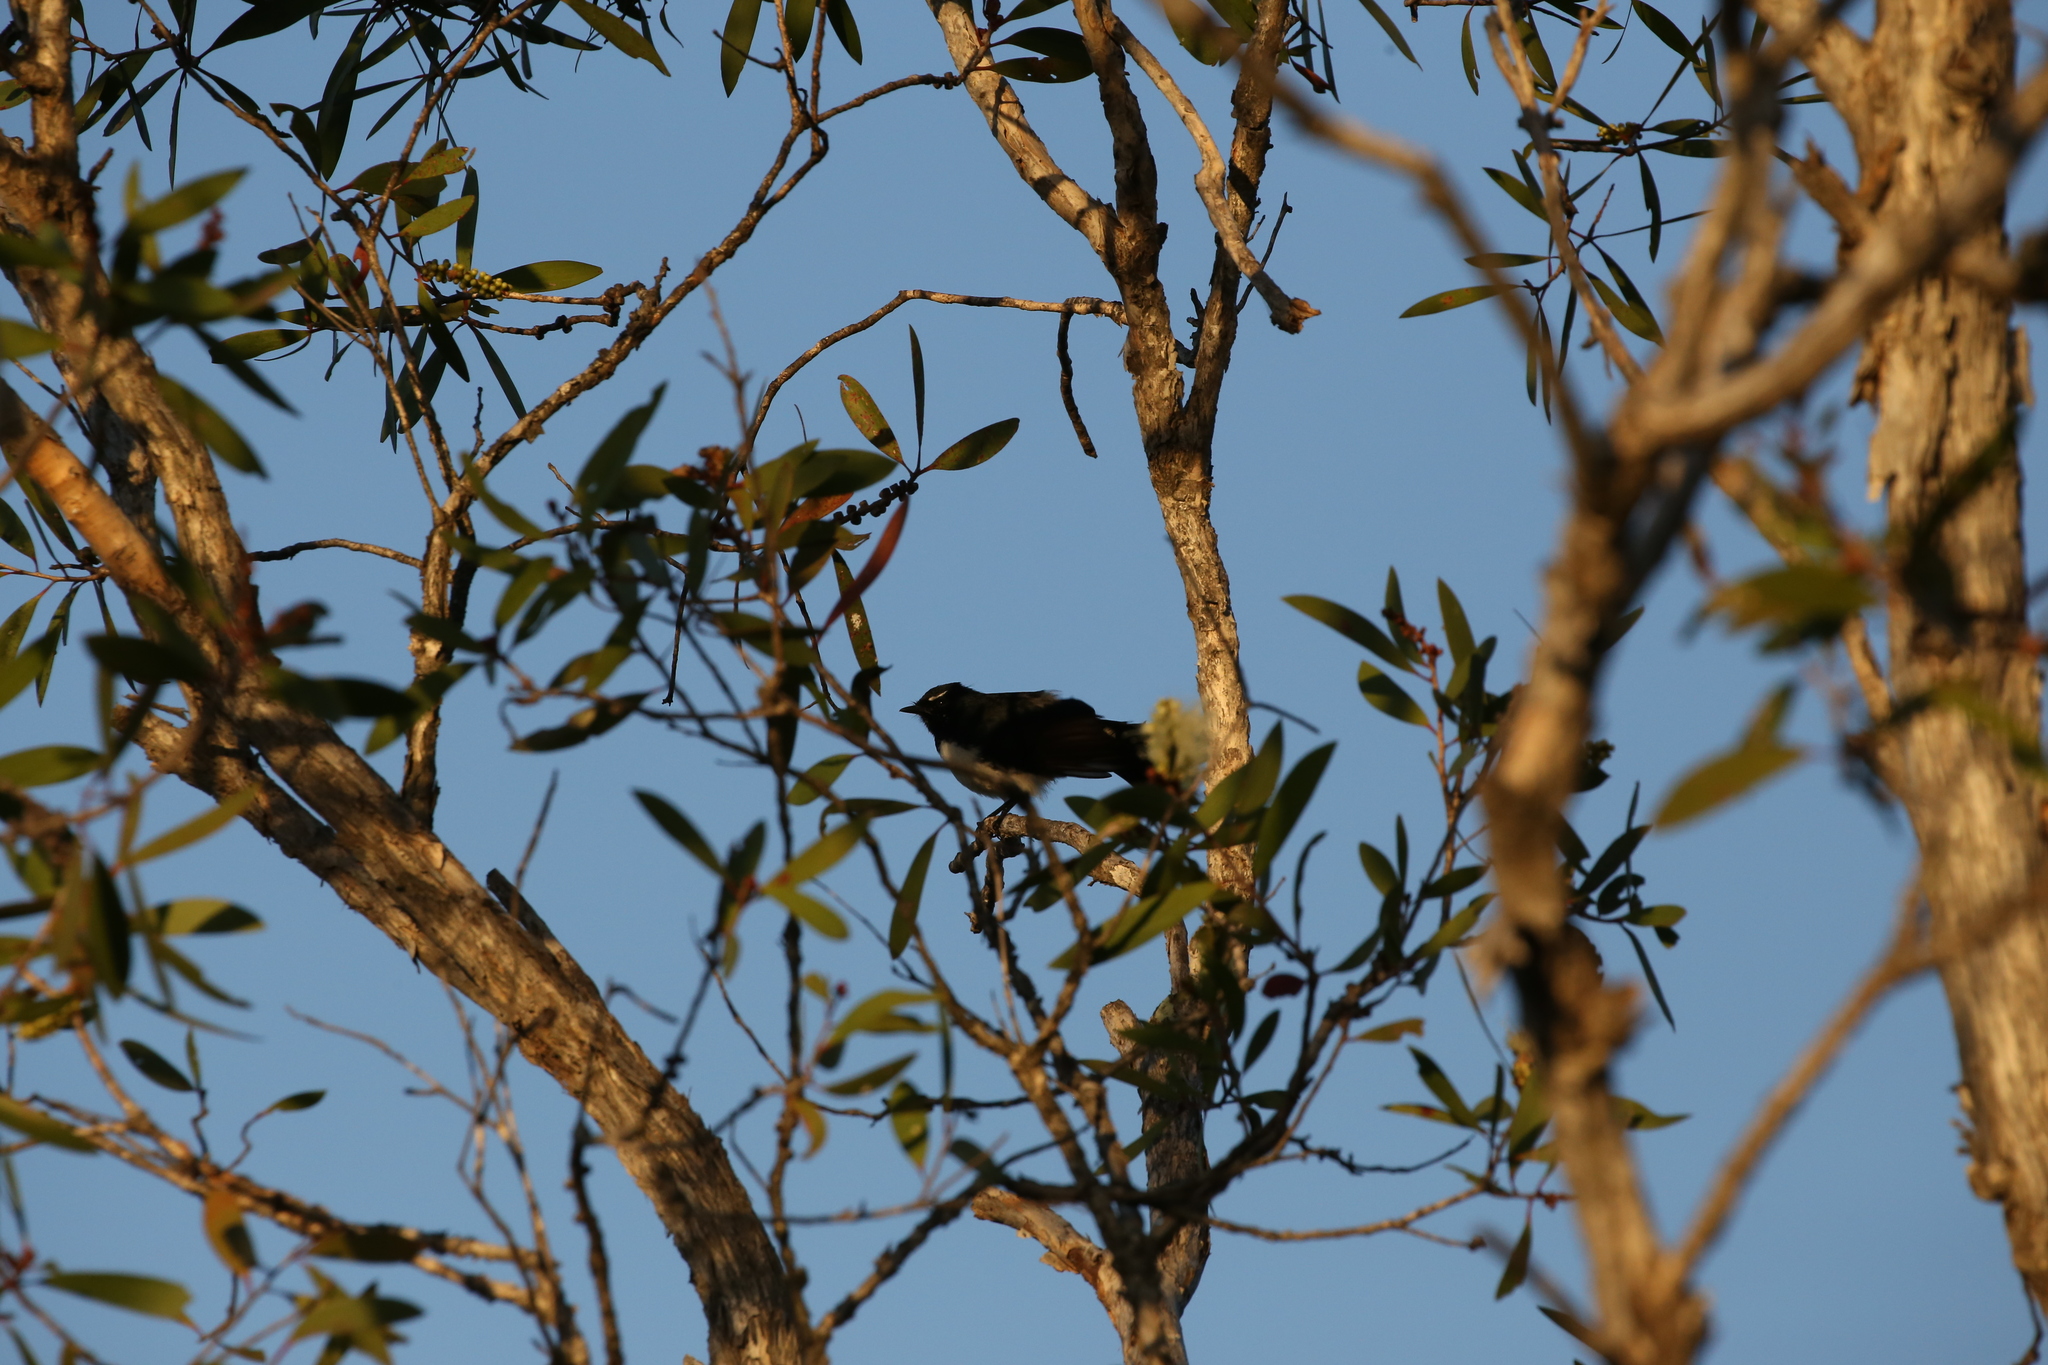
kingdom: Animalia
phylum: Chordata
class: Aves
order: Passeriformes
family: Rhipiduridae
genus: Rhipidura
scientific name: Rhipidura leucophrys
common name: Willie wagtail
